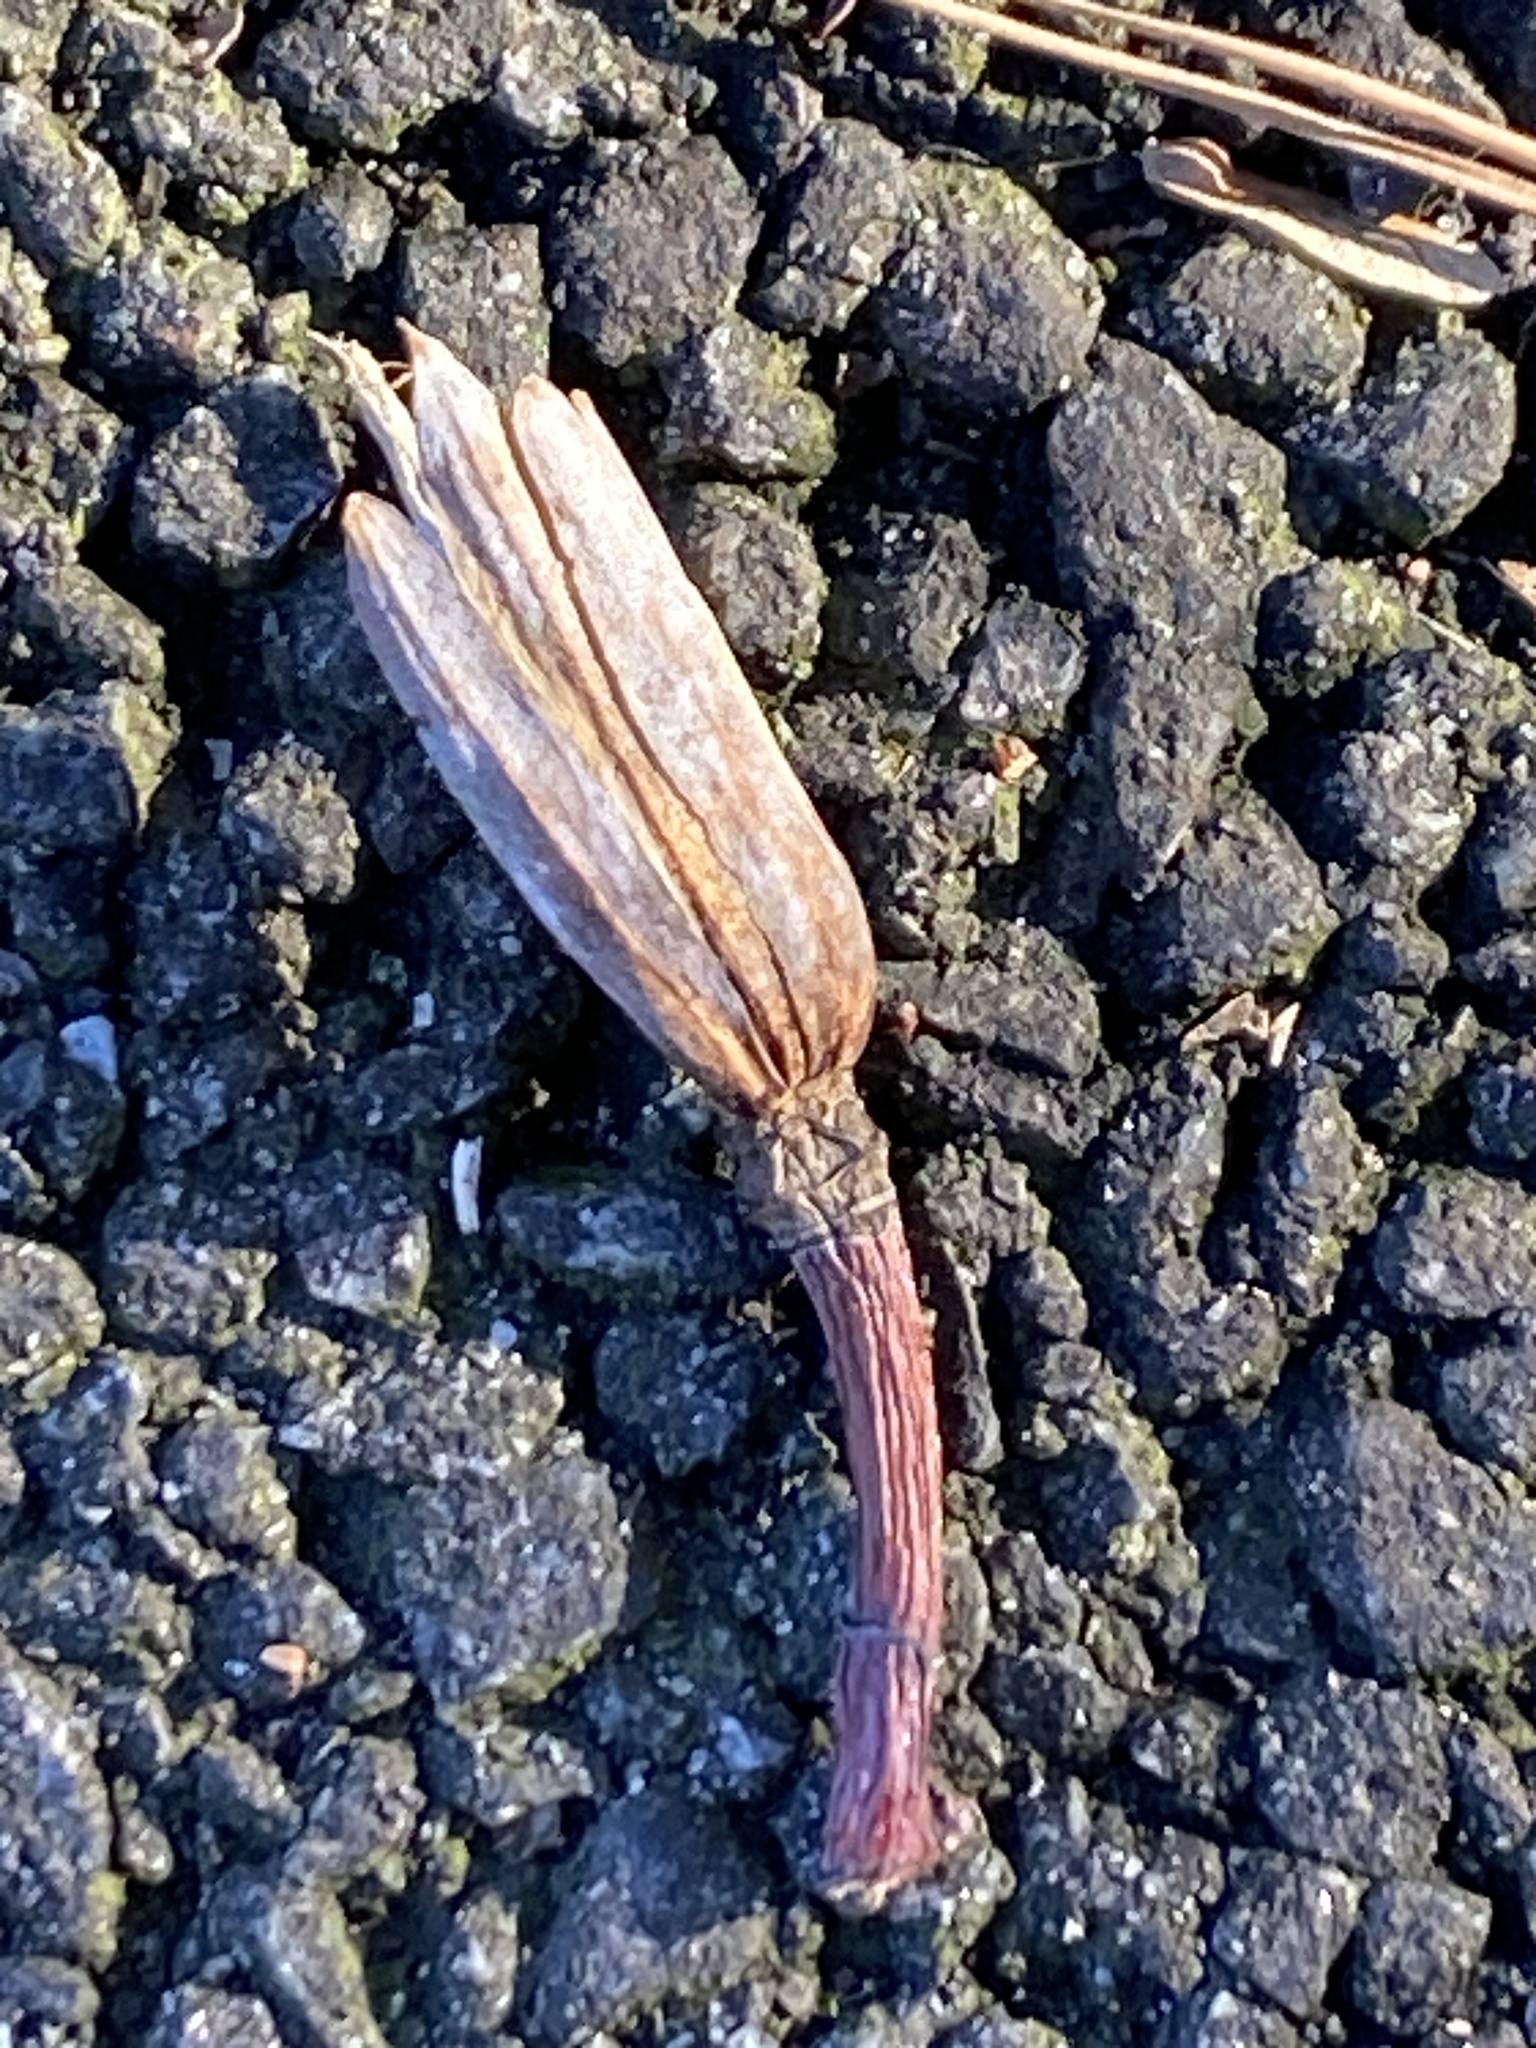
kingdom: Plantae
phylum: Tracheophyta
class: Magnoliopsida
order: Magnoliales
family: Magnoliaceae
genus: Liriodendron
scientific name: Liriodendron tulipifera
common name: Tulip tree
